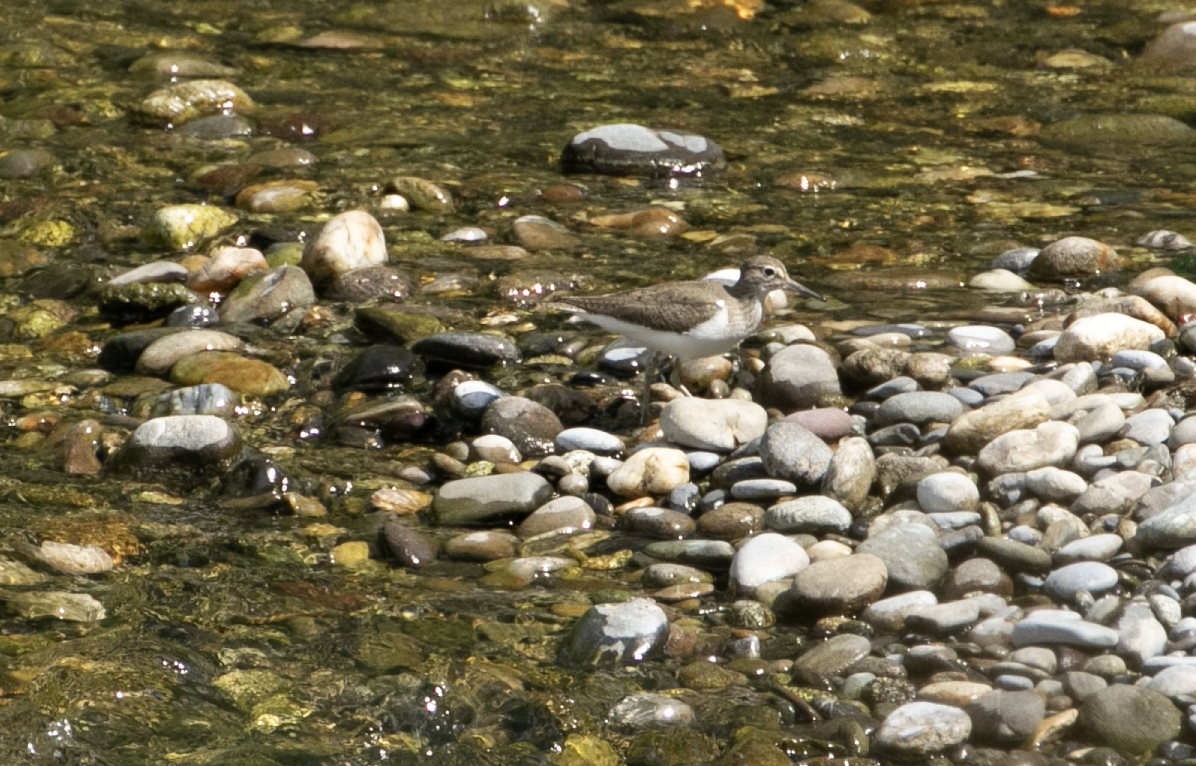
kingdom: Animalia
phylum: Chordata
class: Aves
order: Charadriiformes
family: Scolopacidae
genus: Actitis
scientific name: Actitis hypoleucos
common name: Common sandpiper
